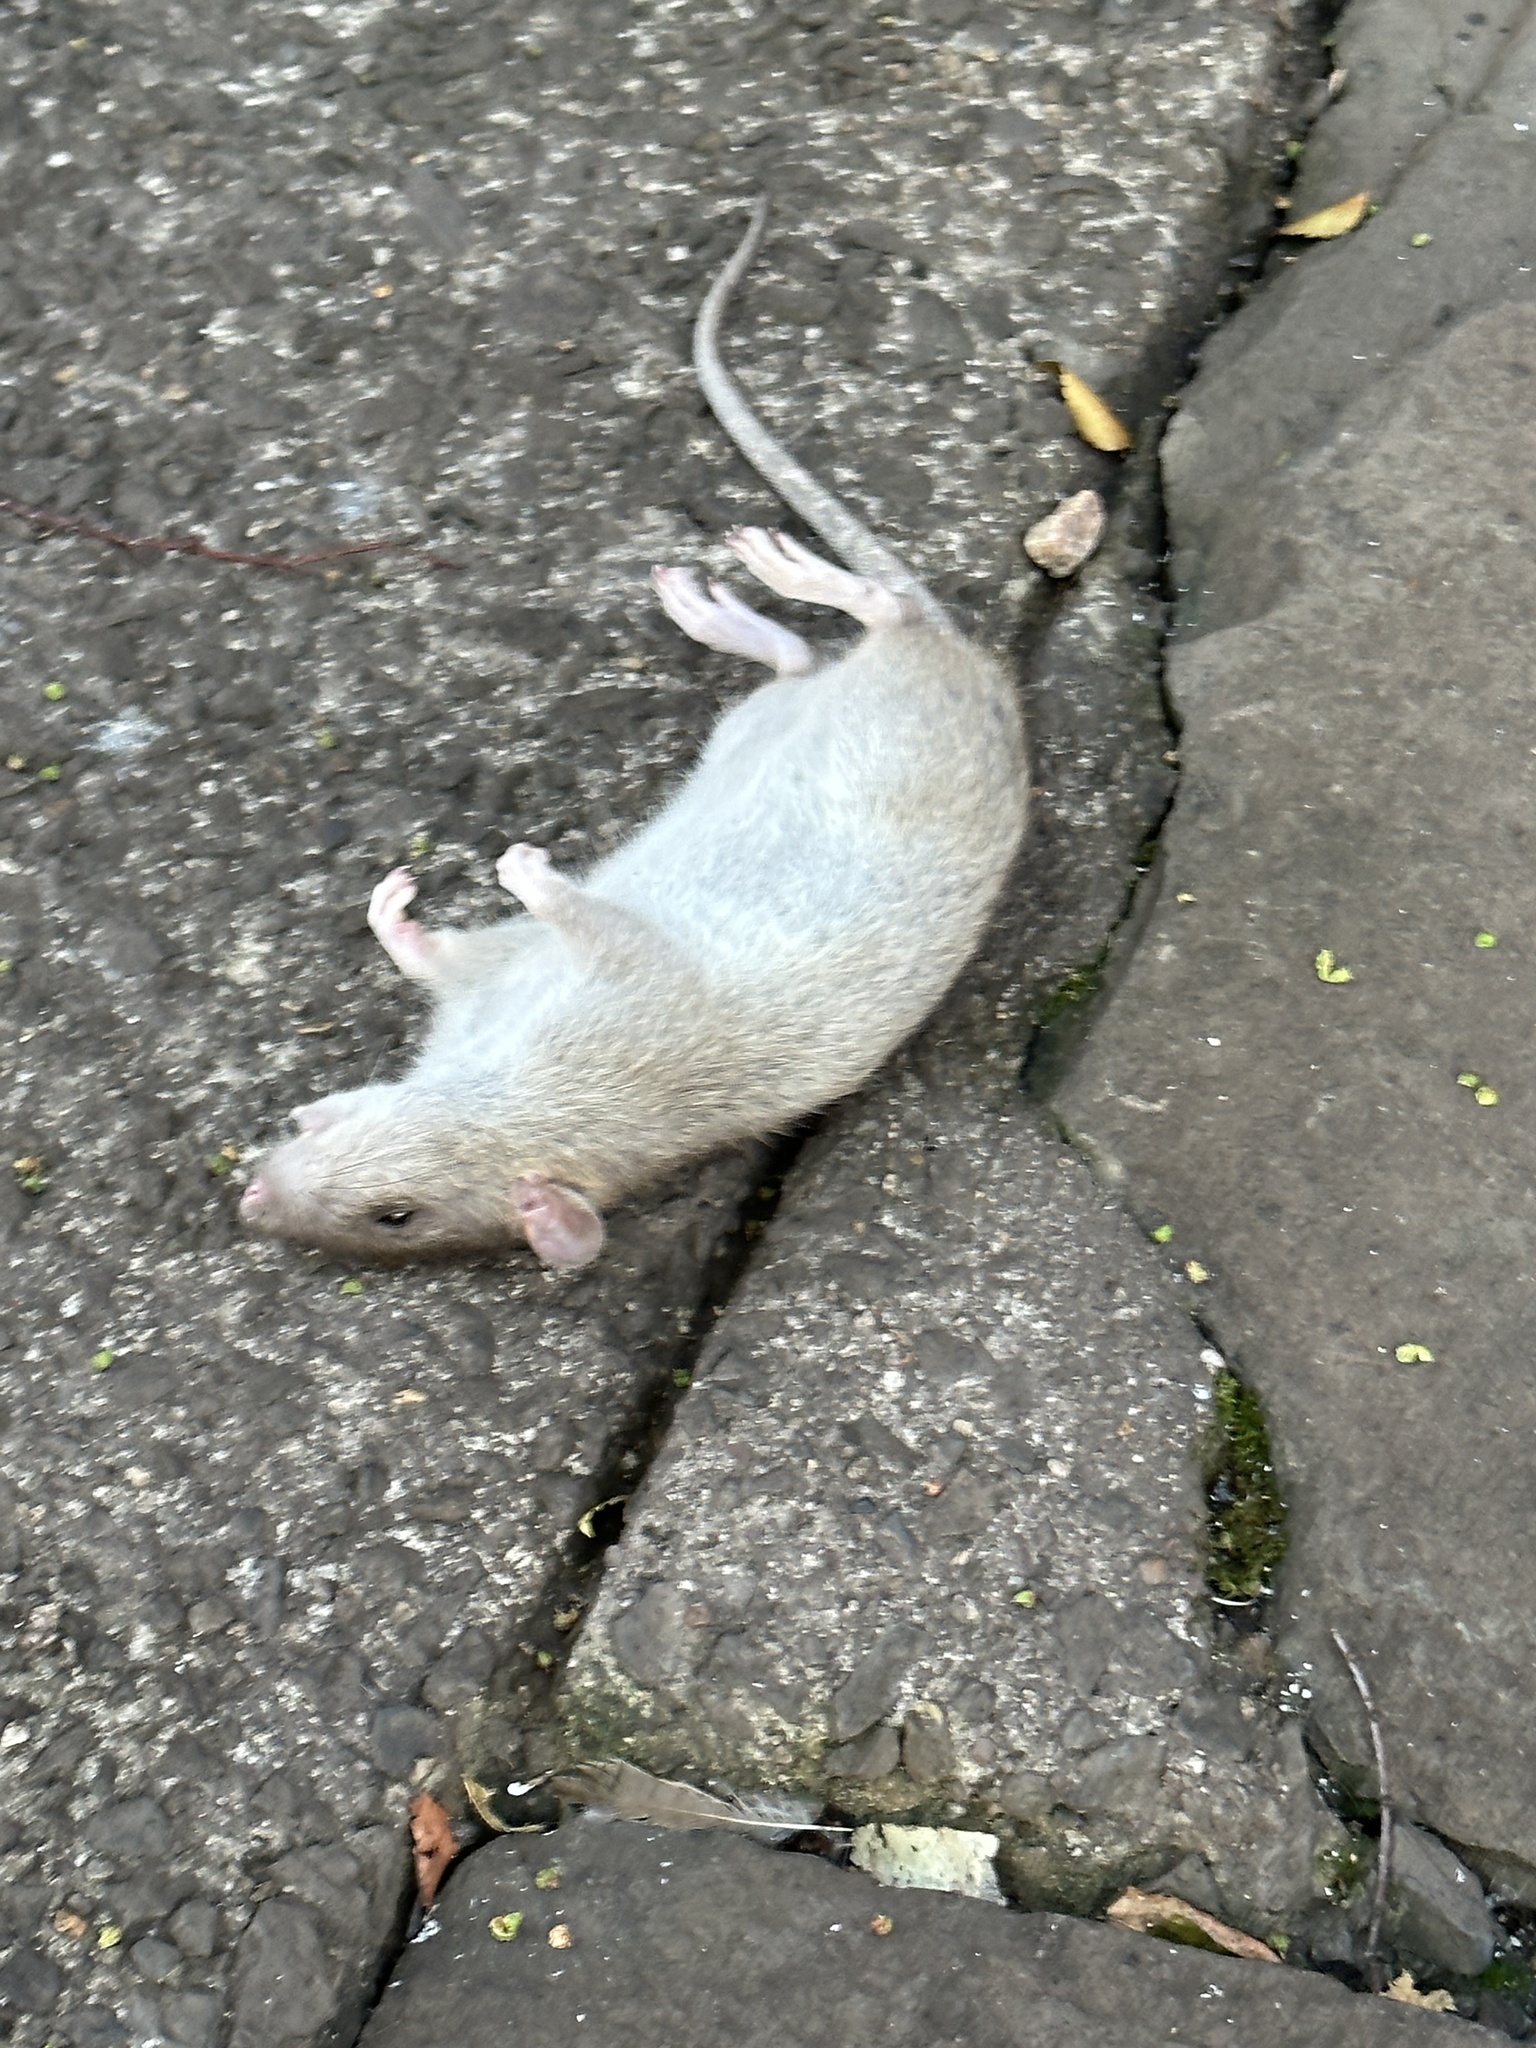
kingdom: Animalia
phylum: Chordata
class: Mammalia
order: Rodentia
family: Muridae
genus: Rattus
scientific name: Rattus norvegicus
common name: Brown rat
